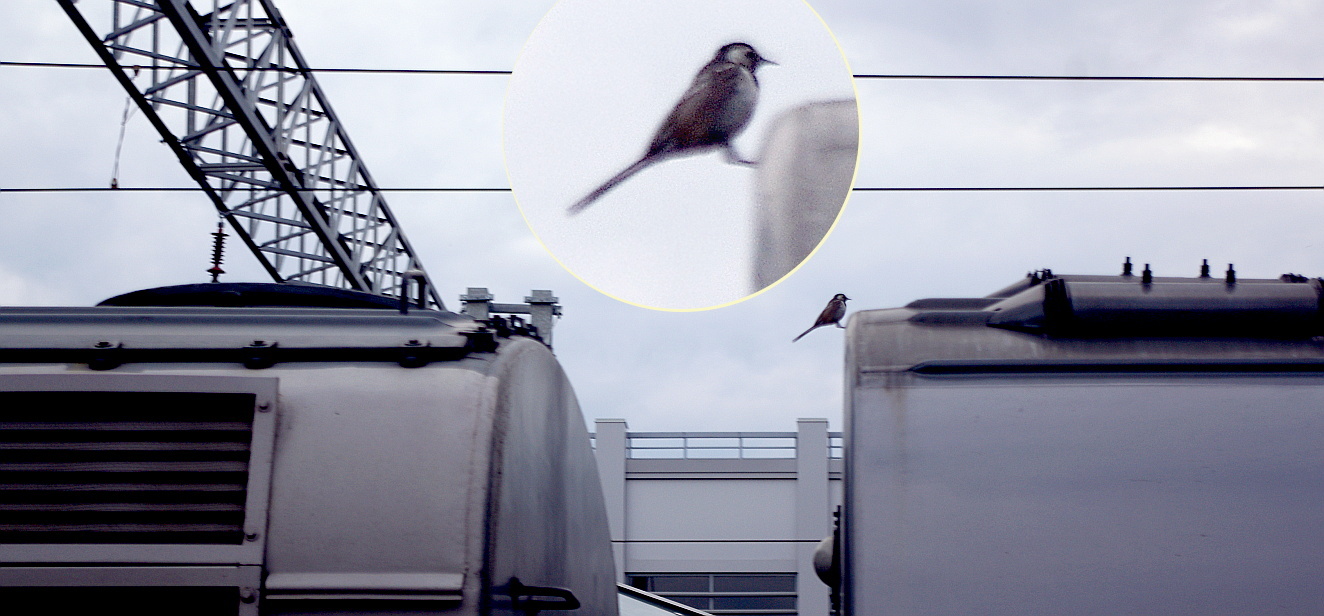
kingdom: Animalia
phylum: Chordata
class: Aves
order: Passeriformes
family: Motacillidae
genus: Motacilla
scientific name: Motacilla alba
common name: White wagtail
